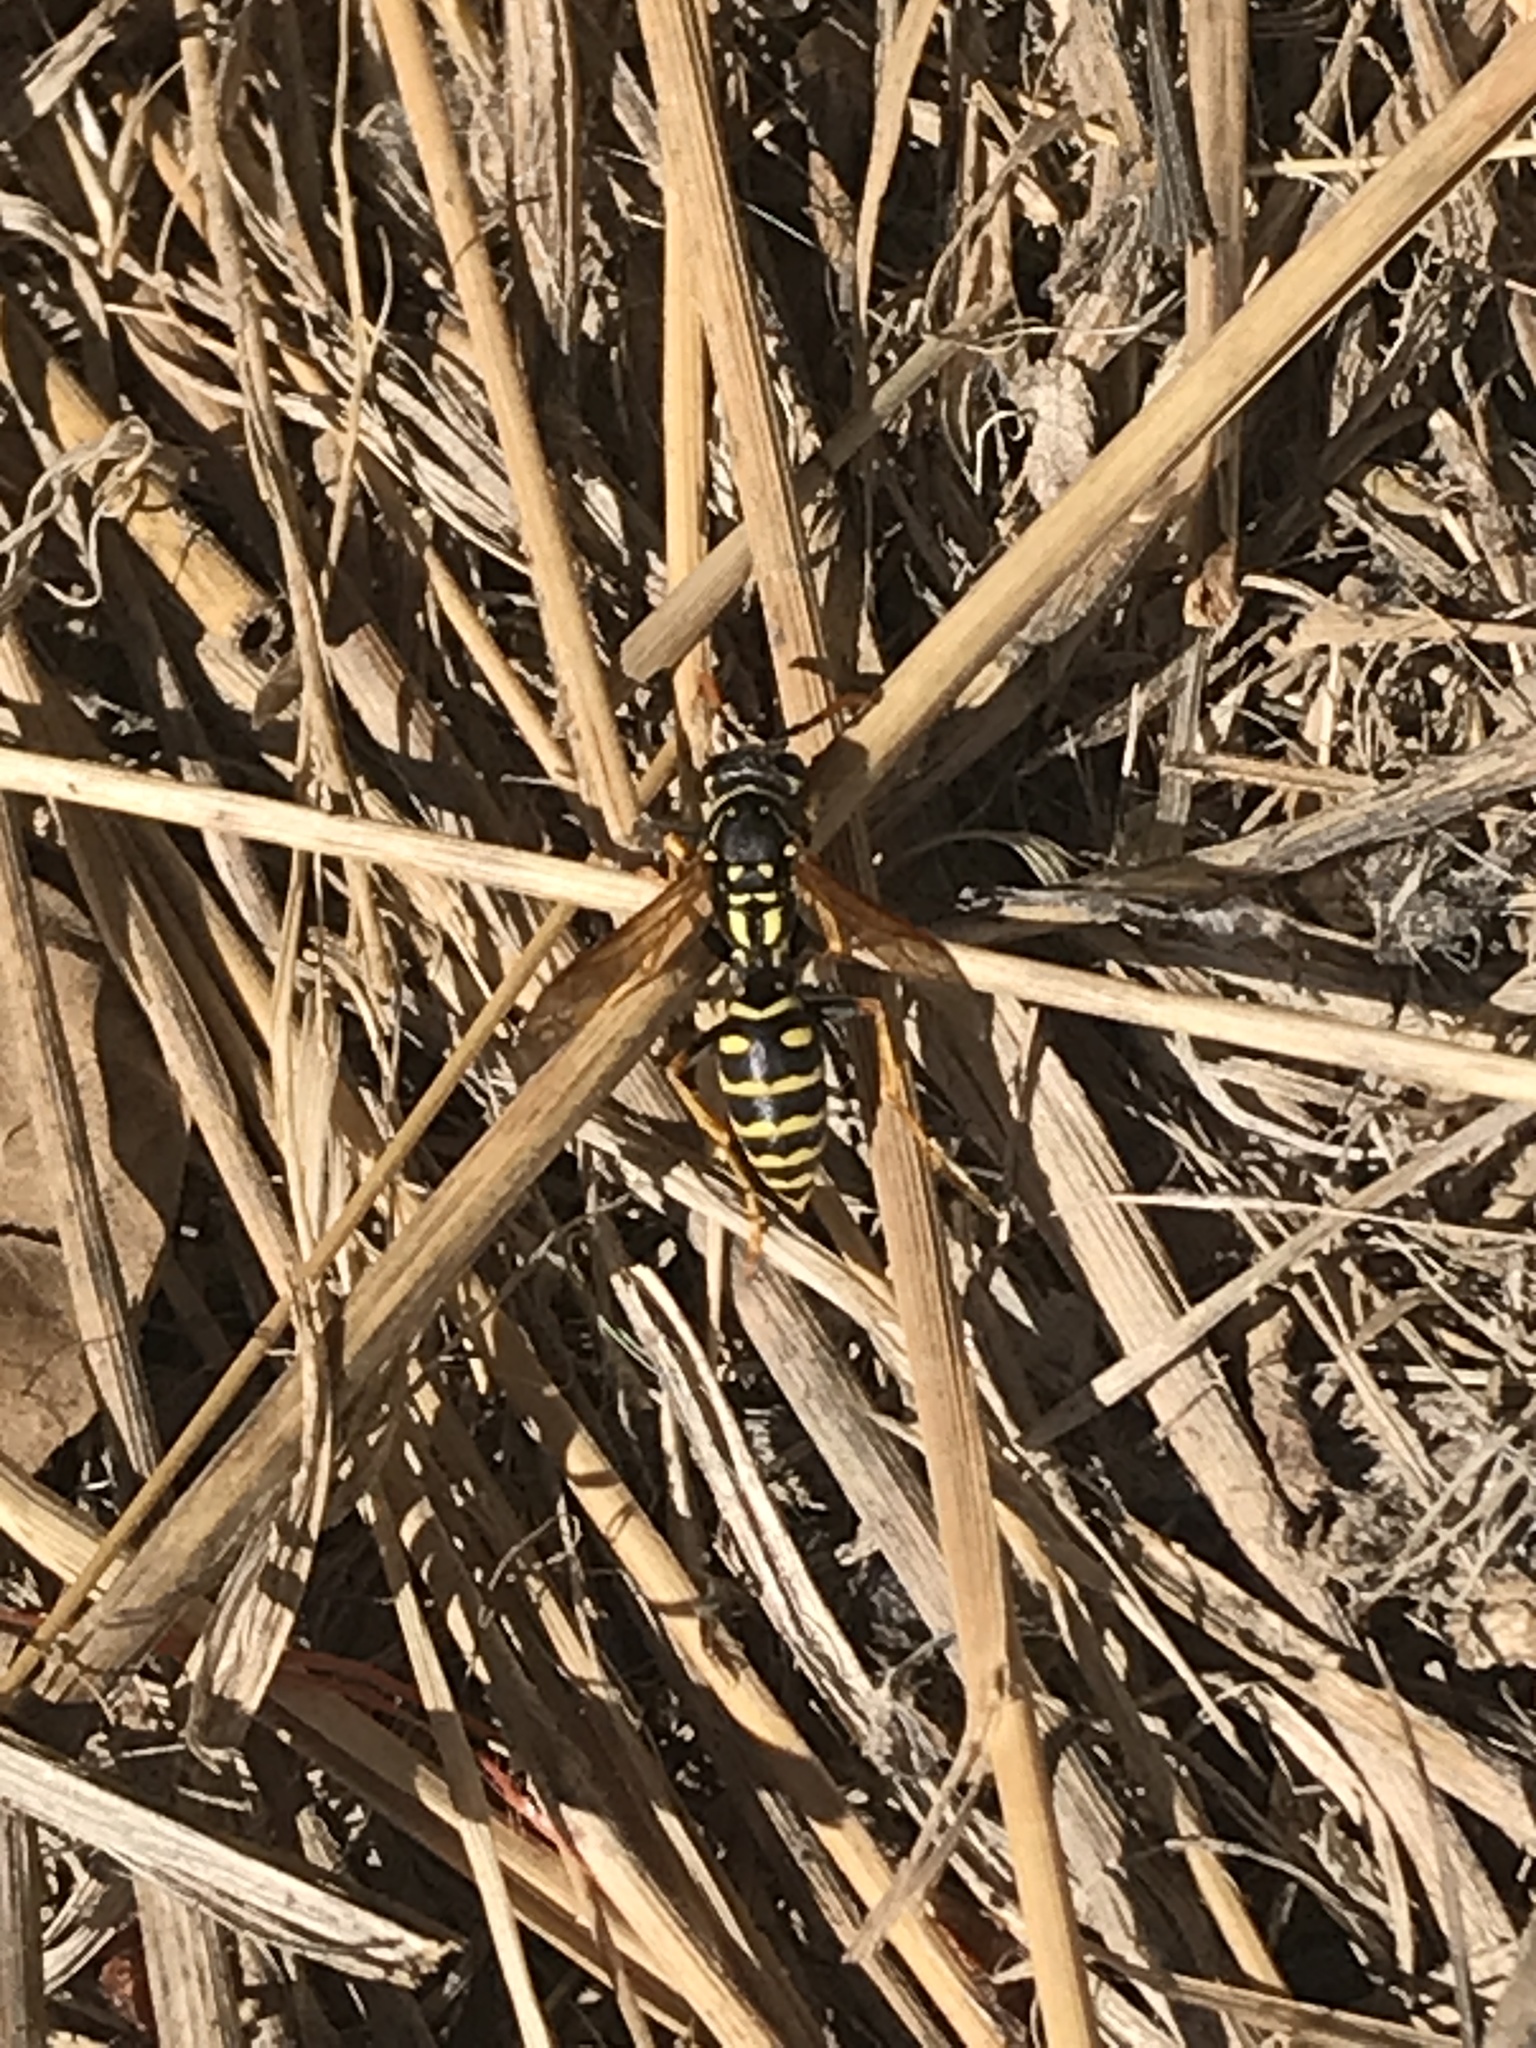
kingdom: Animalia
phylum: Arthropoda
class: Insecta
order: Hymenoptera
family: Eumenidae
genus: Polistes
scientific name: Polistes dominula
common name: Paper wasp
